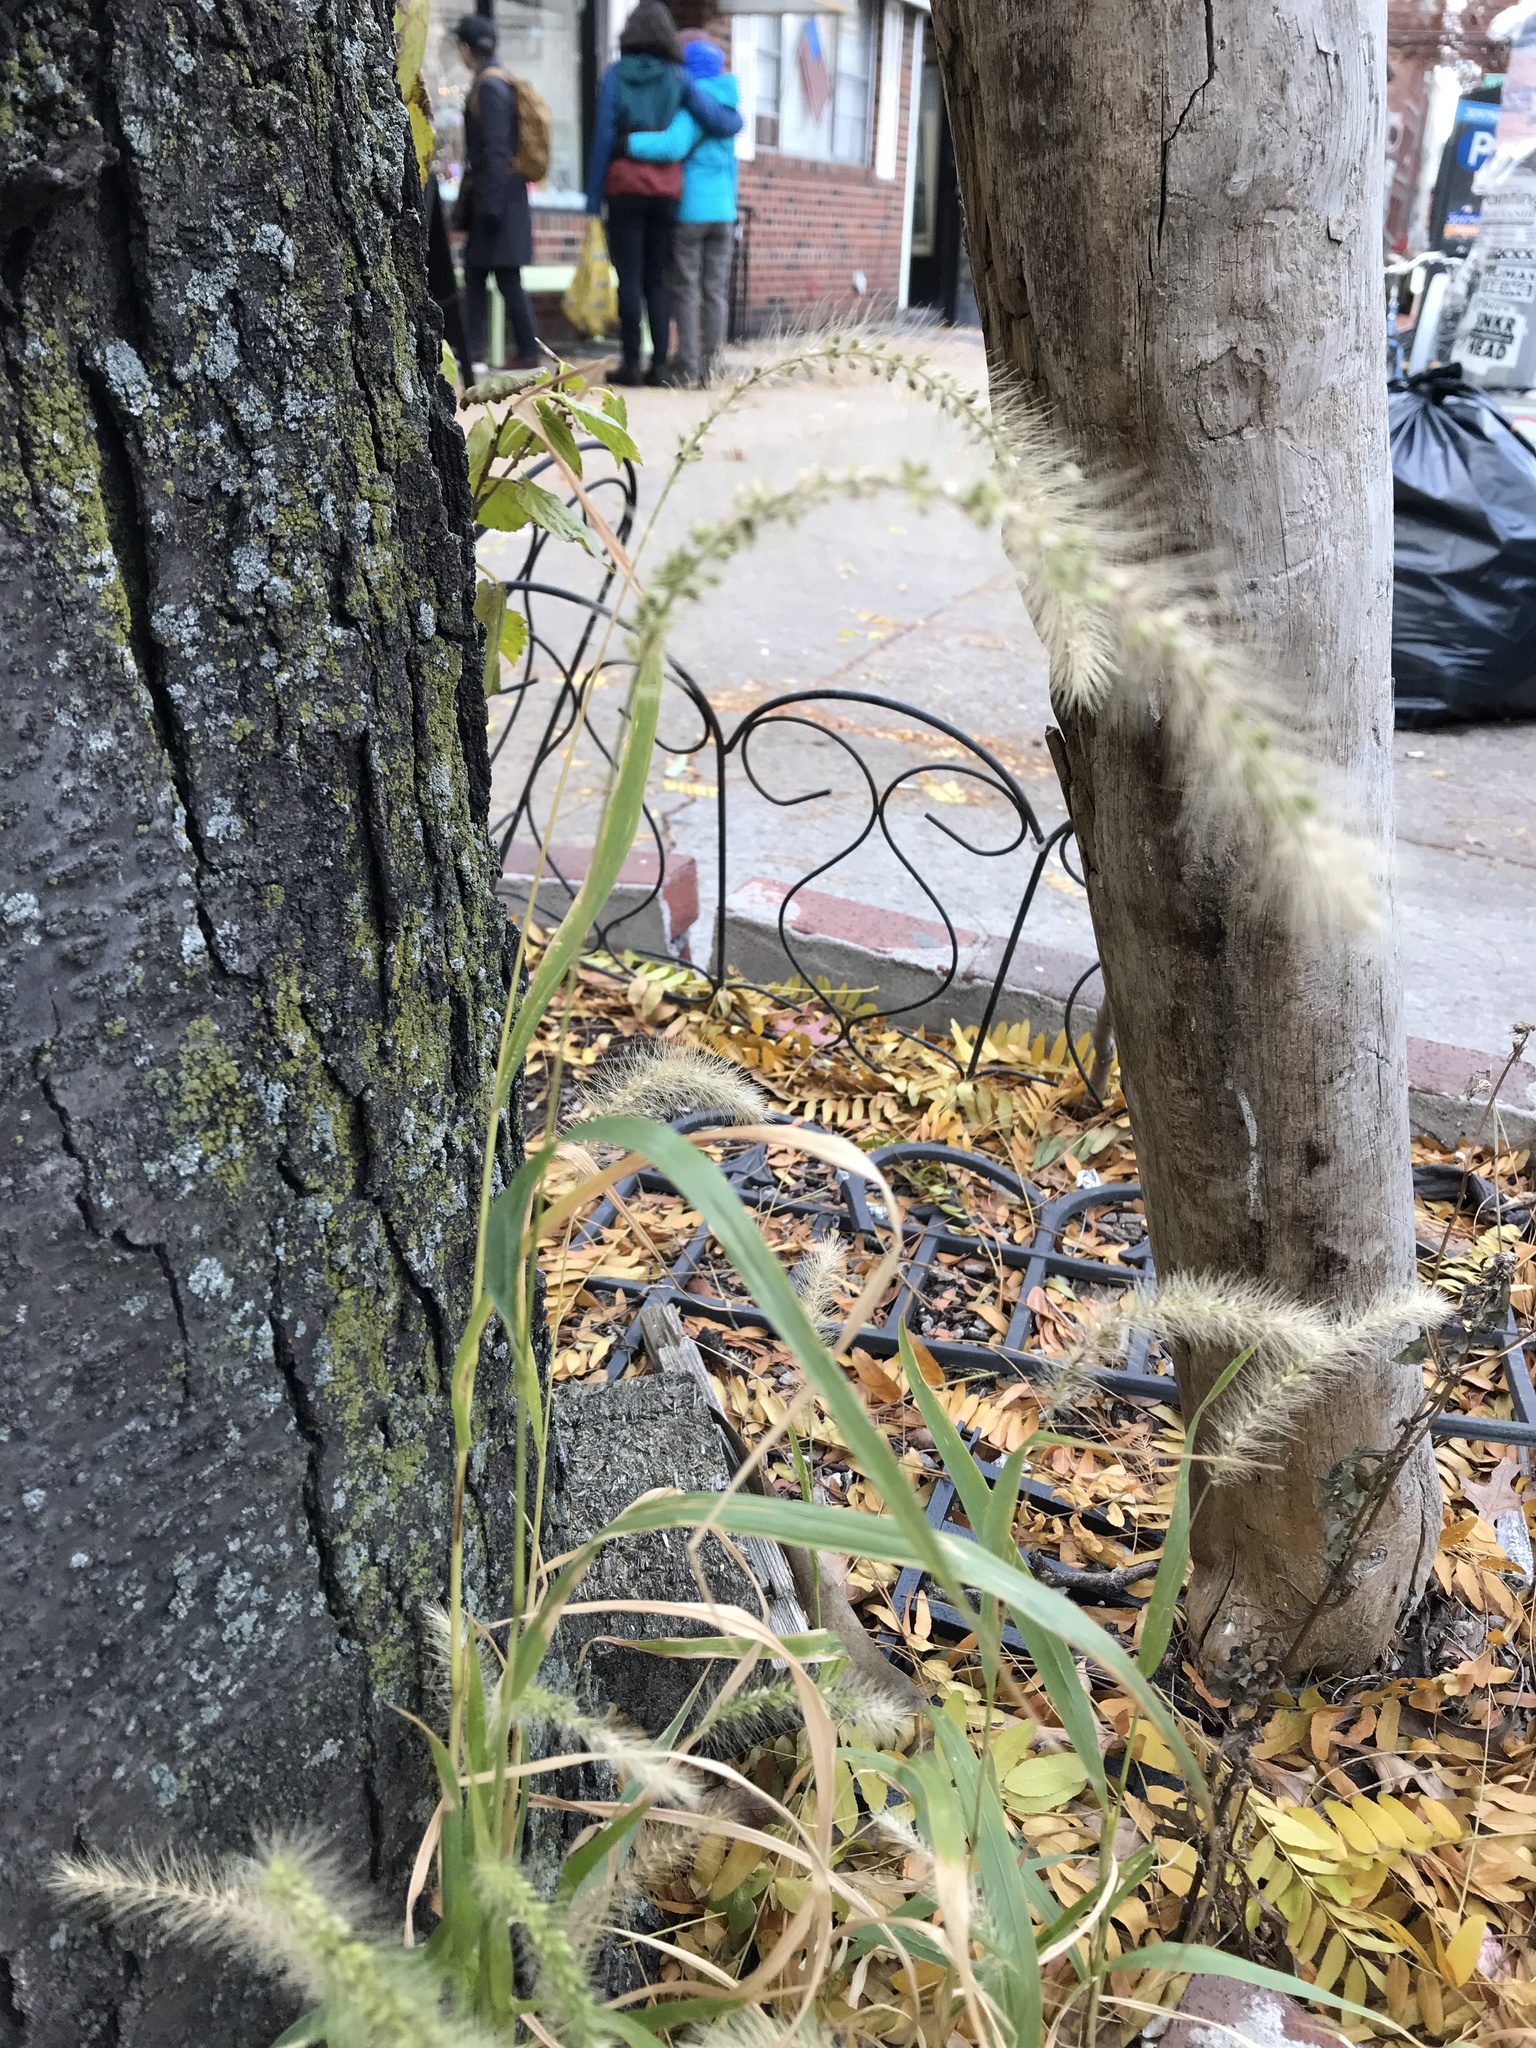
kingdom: Plantae
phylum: Tracheophyta
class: Liliopsida
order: Poales
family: Poaceae
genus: Setaria
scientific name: Setaria faberi
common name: Nodding bristle-grass
